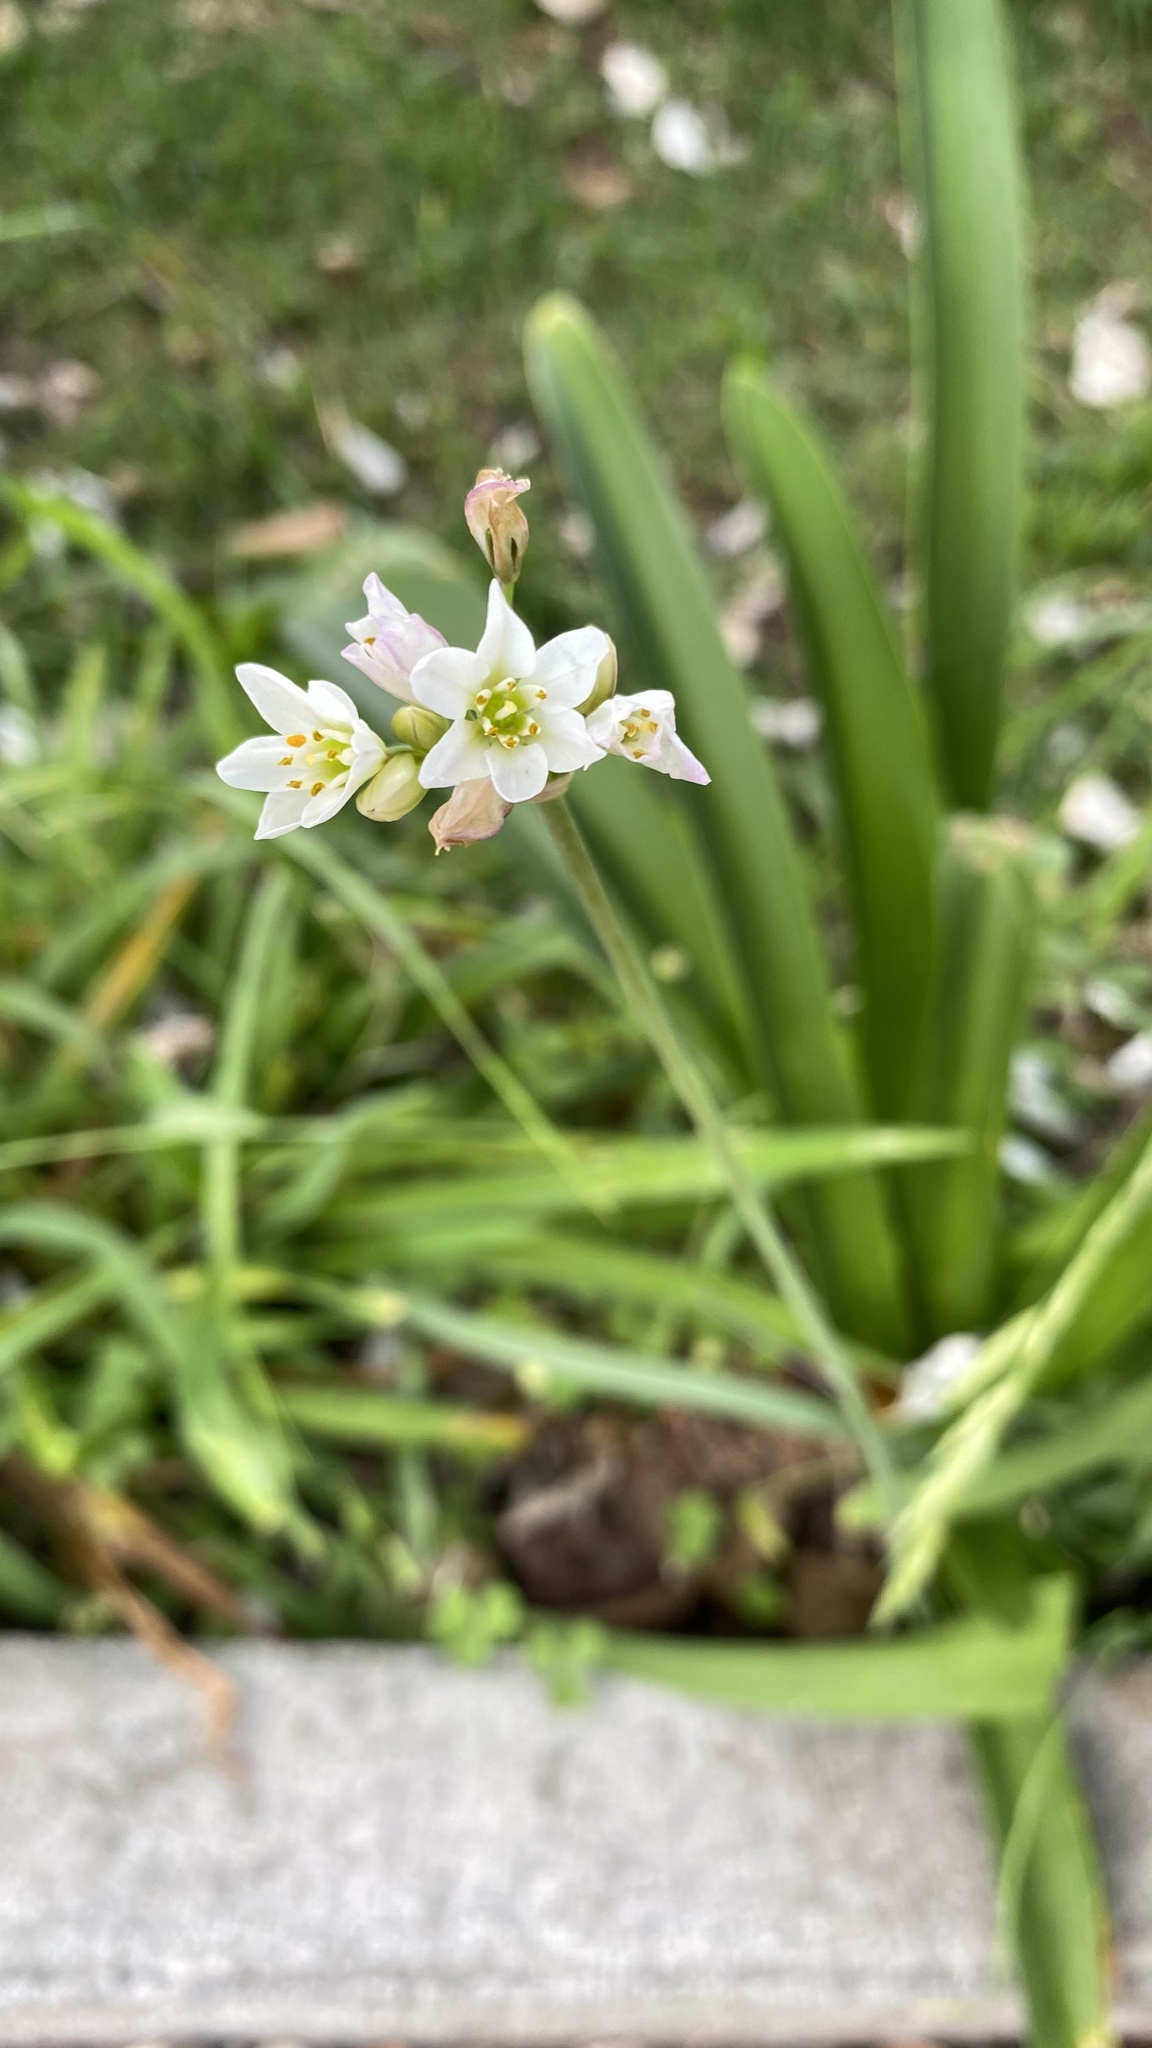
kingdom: Plantae
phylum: Tracheophyta
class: Liliopsida
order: Asparagales
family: Amaryllidaceae
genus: Nothoscordum
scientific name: Nothoscordum gracile
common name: Slender false garlic
